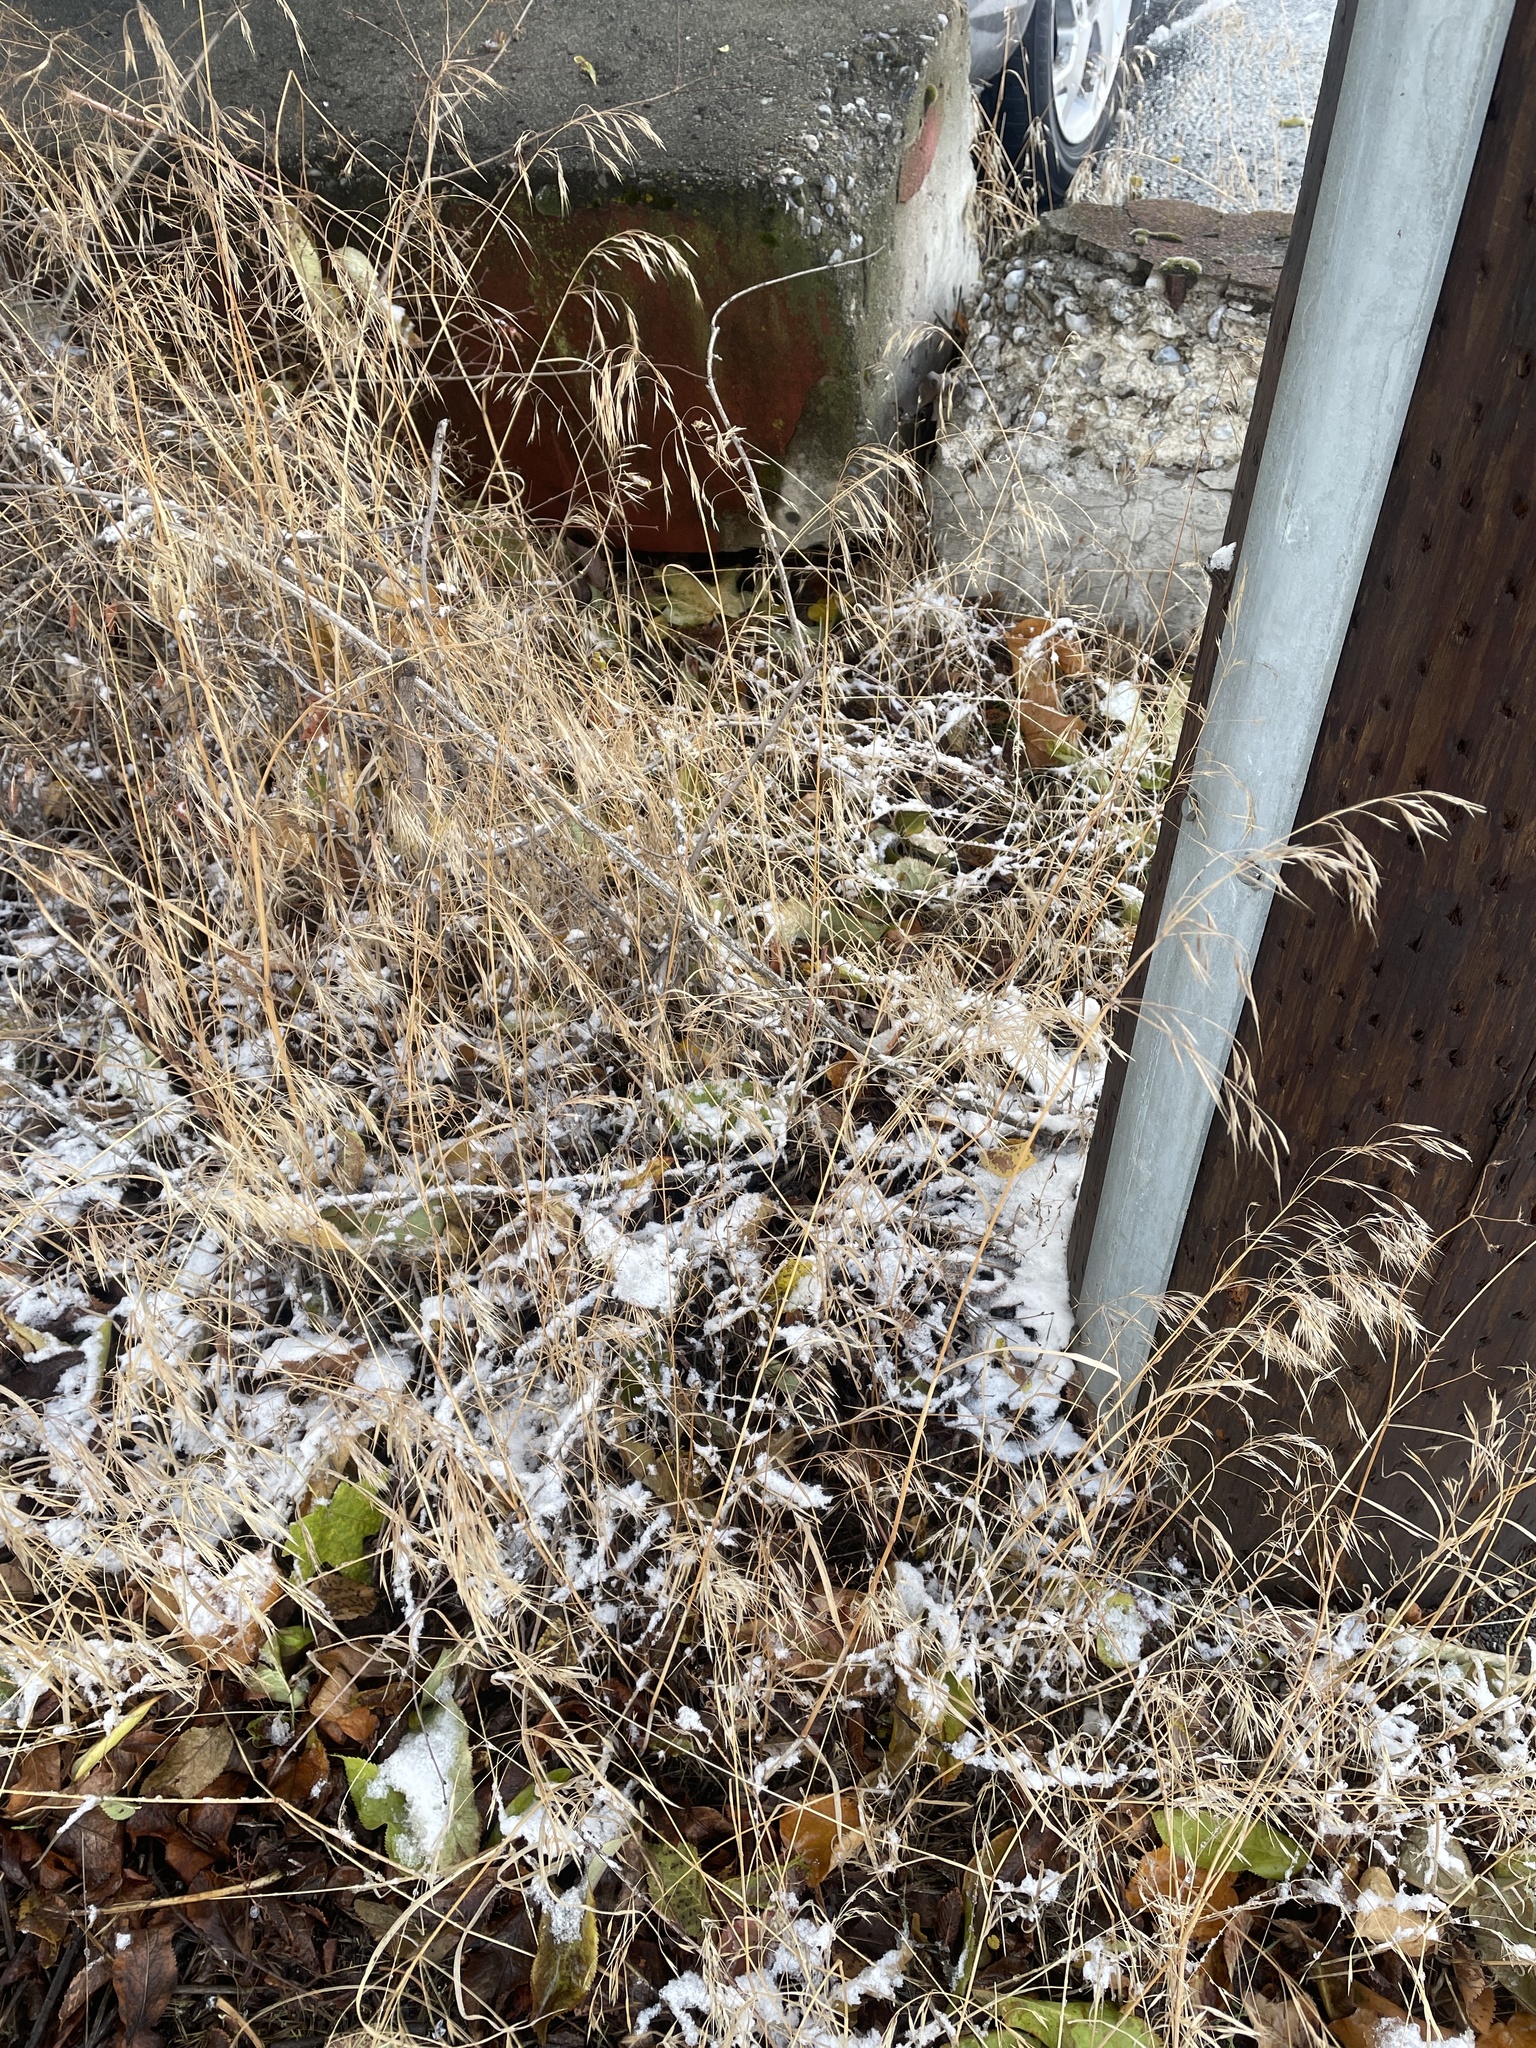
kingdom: Plantae
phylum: Tracheophyta
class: Liliopsida
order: Poales
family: Poaceae
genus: Bromus
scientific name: Bromus tectorum
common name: Cheatgrass
